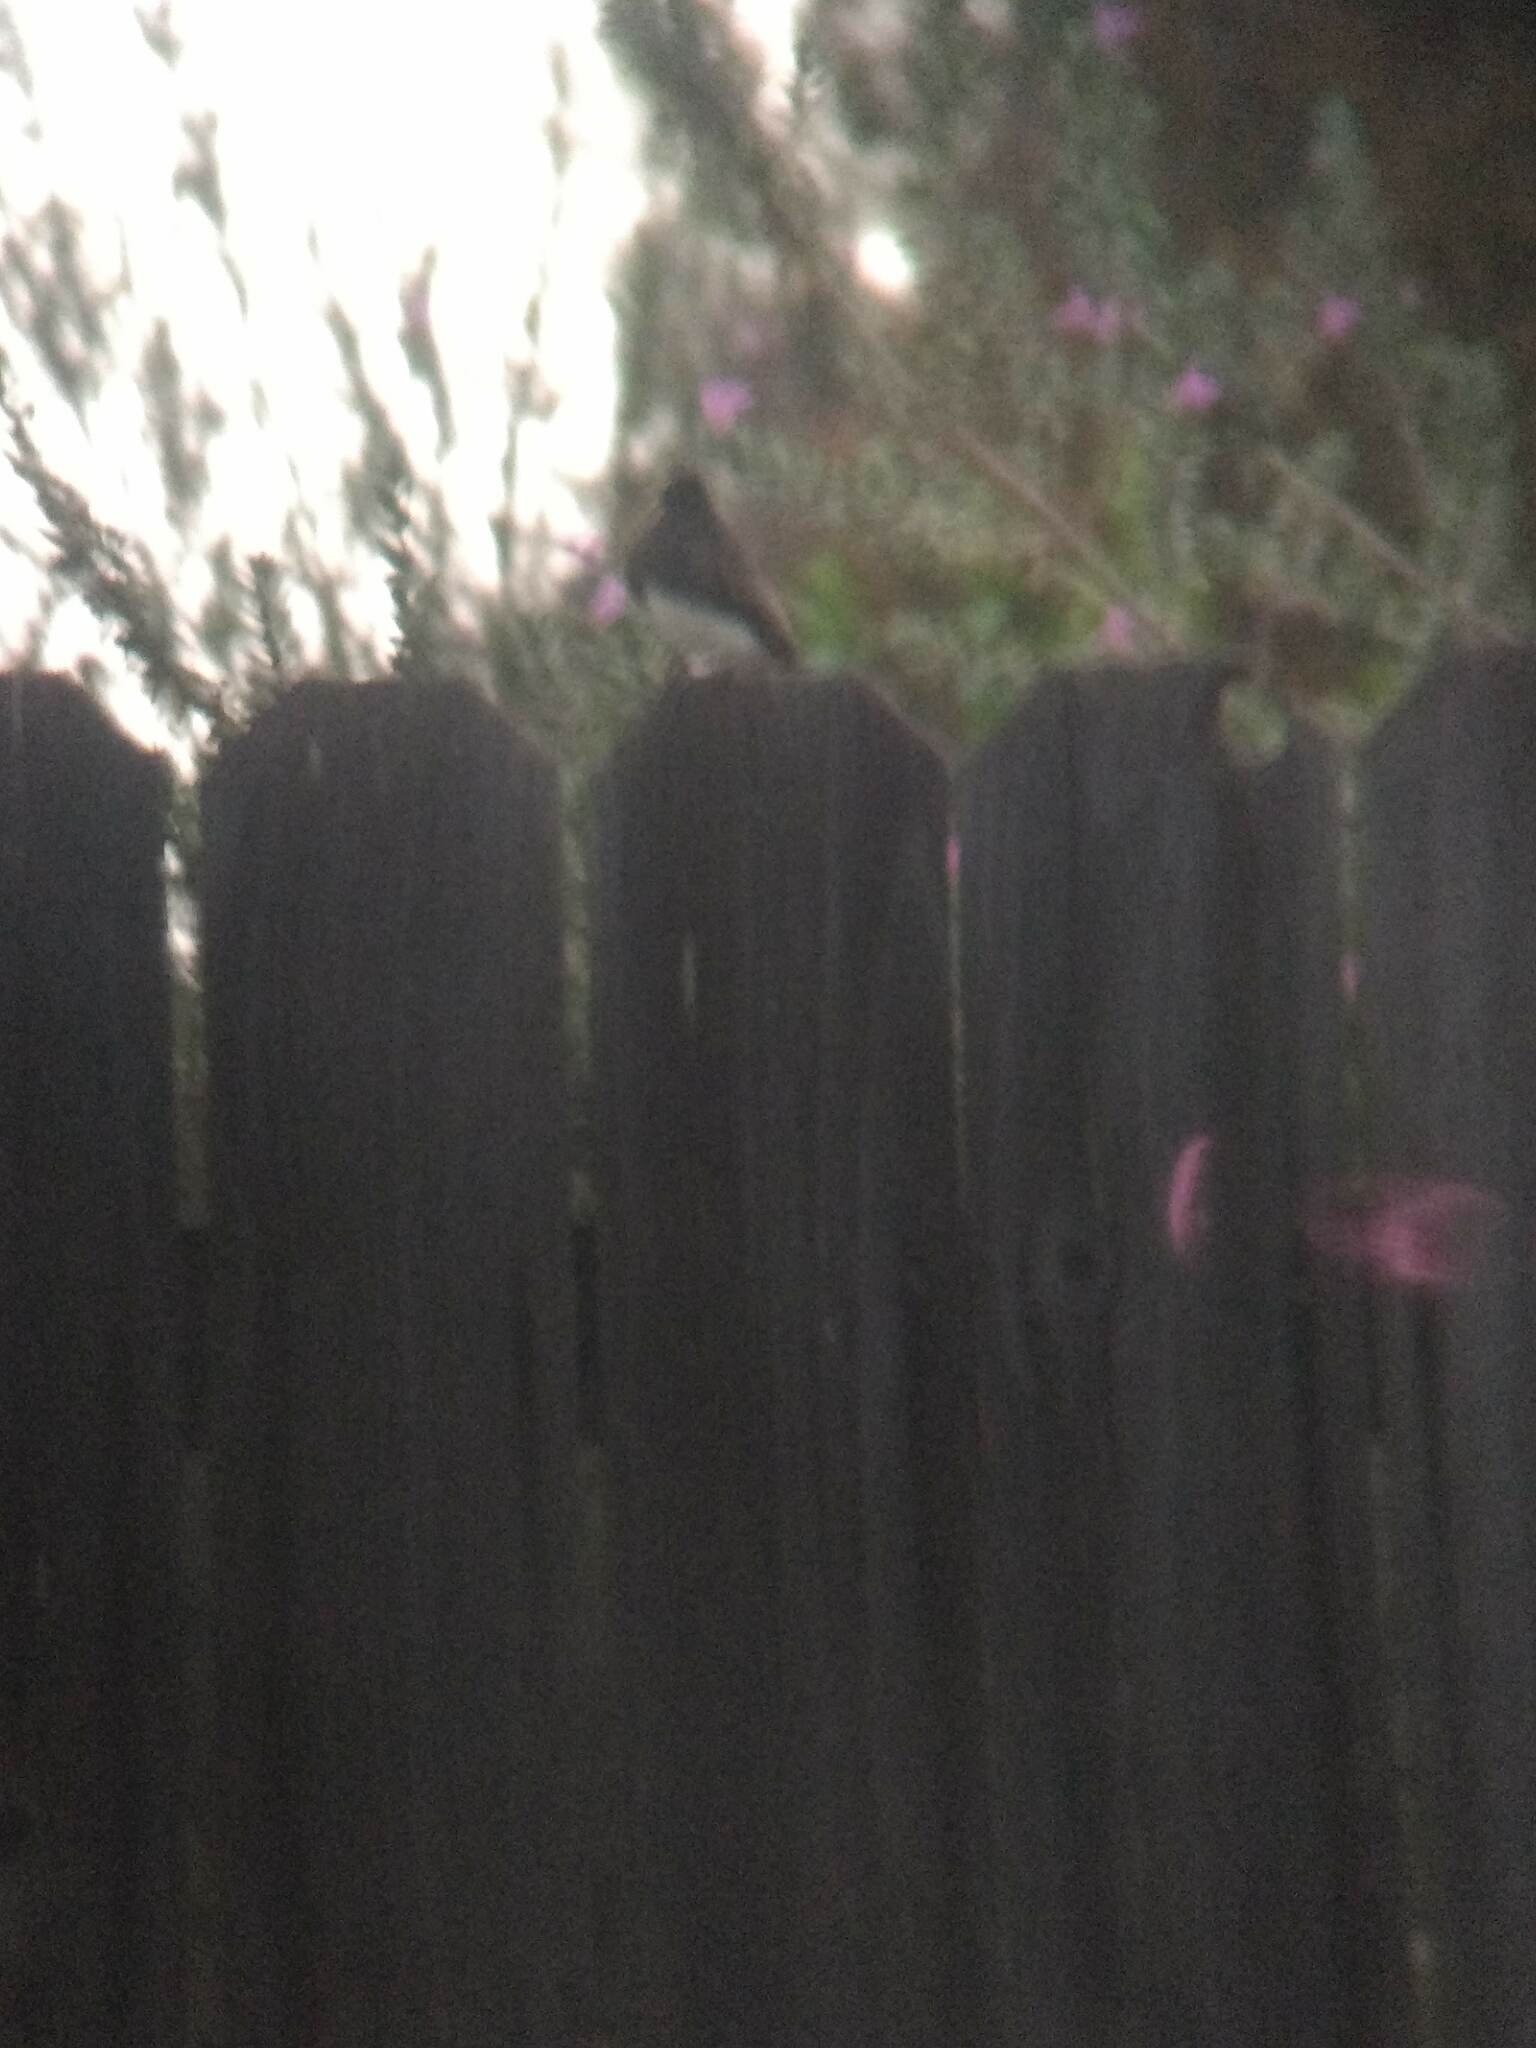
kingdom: Animalia
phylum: Chordata
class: Aves
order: Passeriformes
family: Tyrannidae
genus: Sayornis
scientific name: Sayornis nigricans
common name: Black phoebe
